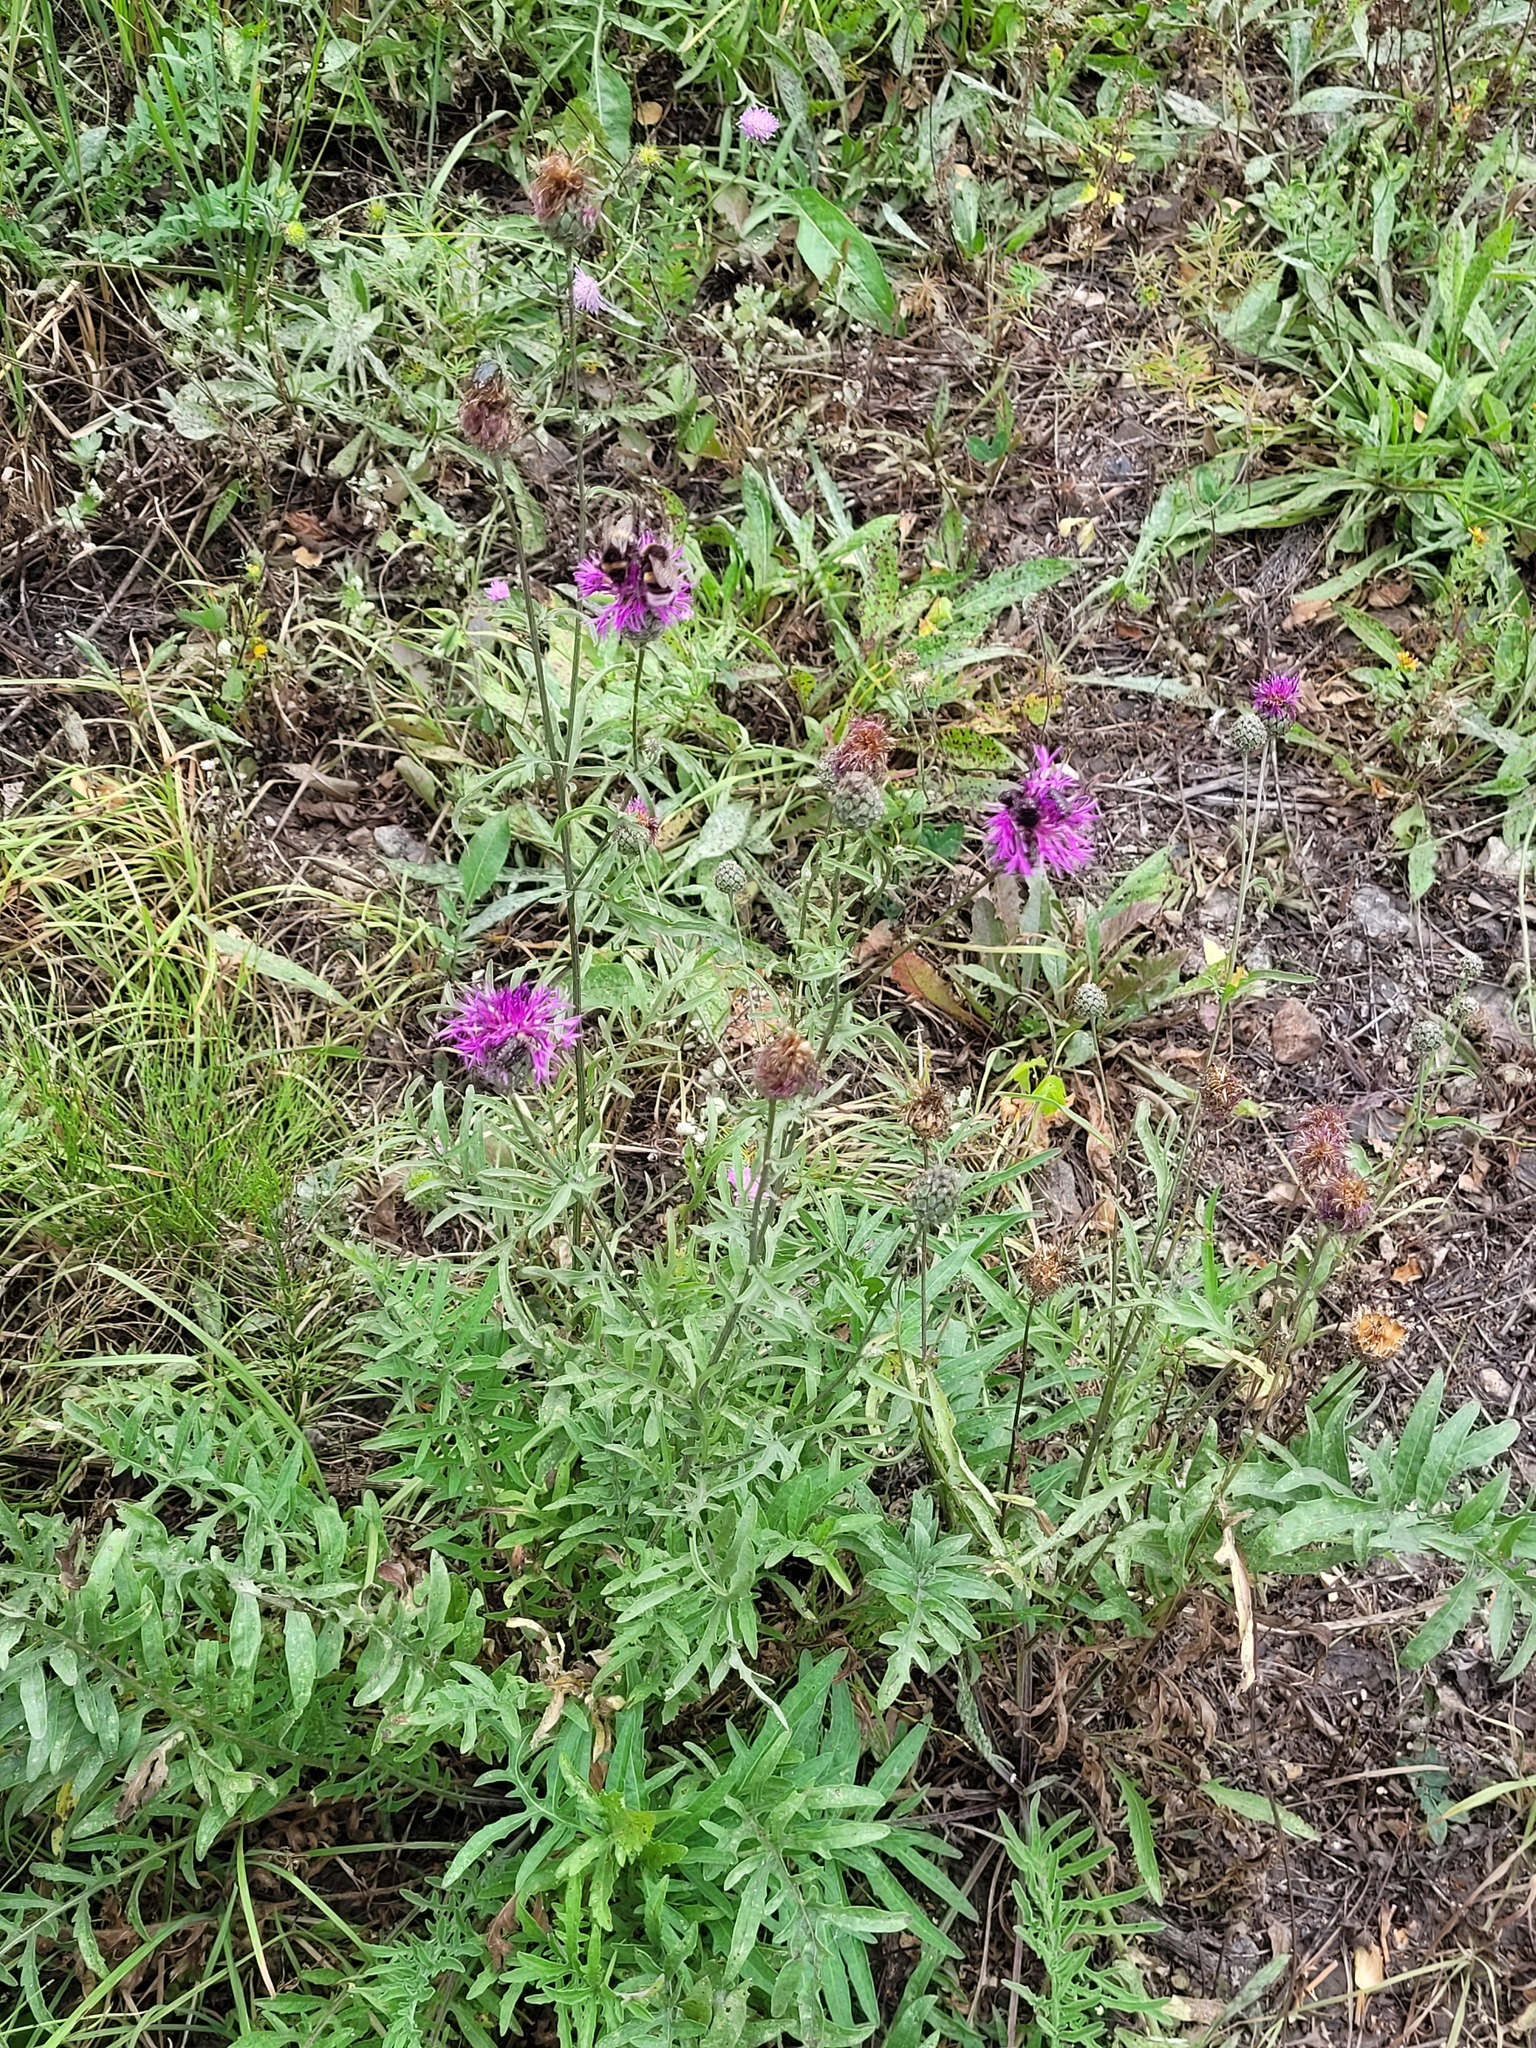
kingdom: Plantae
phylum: Tracheophyta
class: Magnoliopsida
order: Asterales
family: Asteraceae
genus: Centaurea
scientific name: Centaurea scabiosa
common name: Greater knapweed
